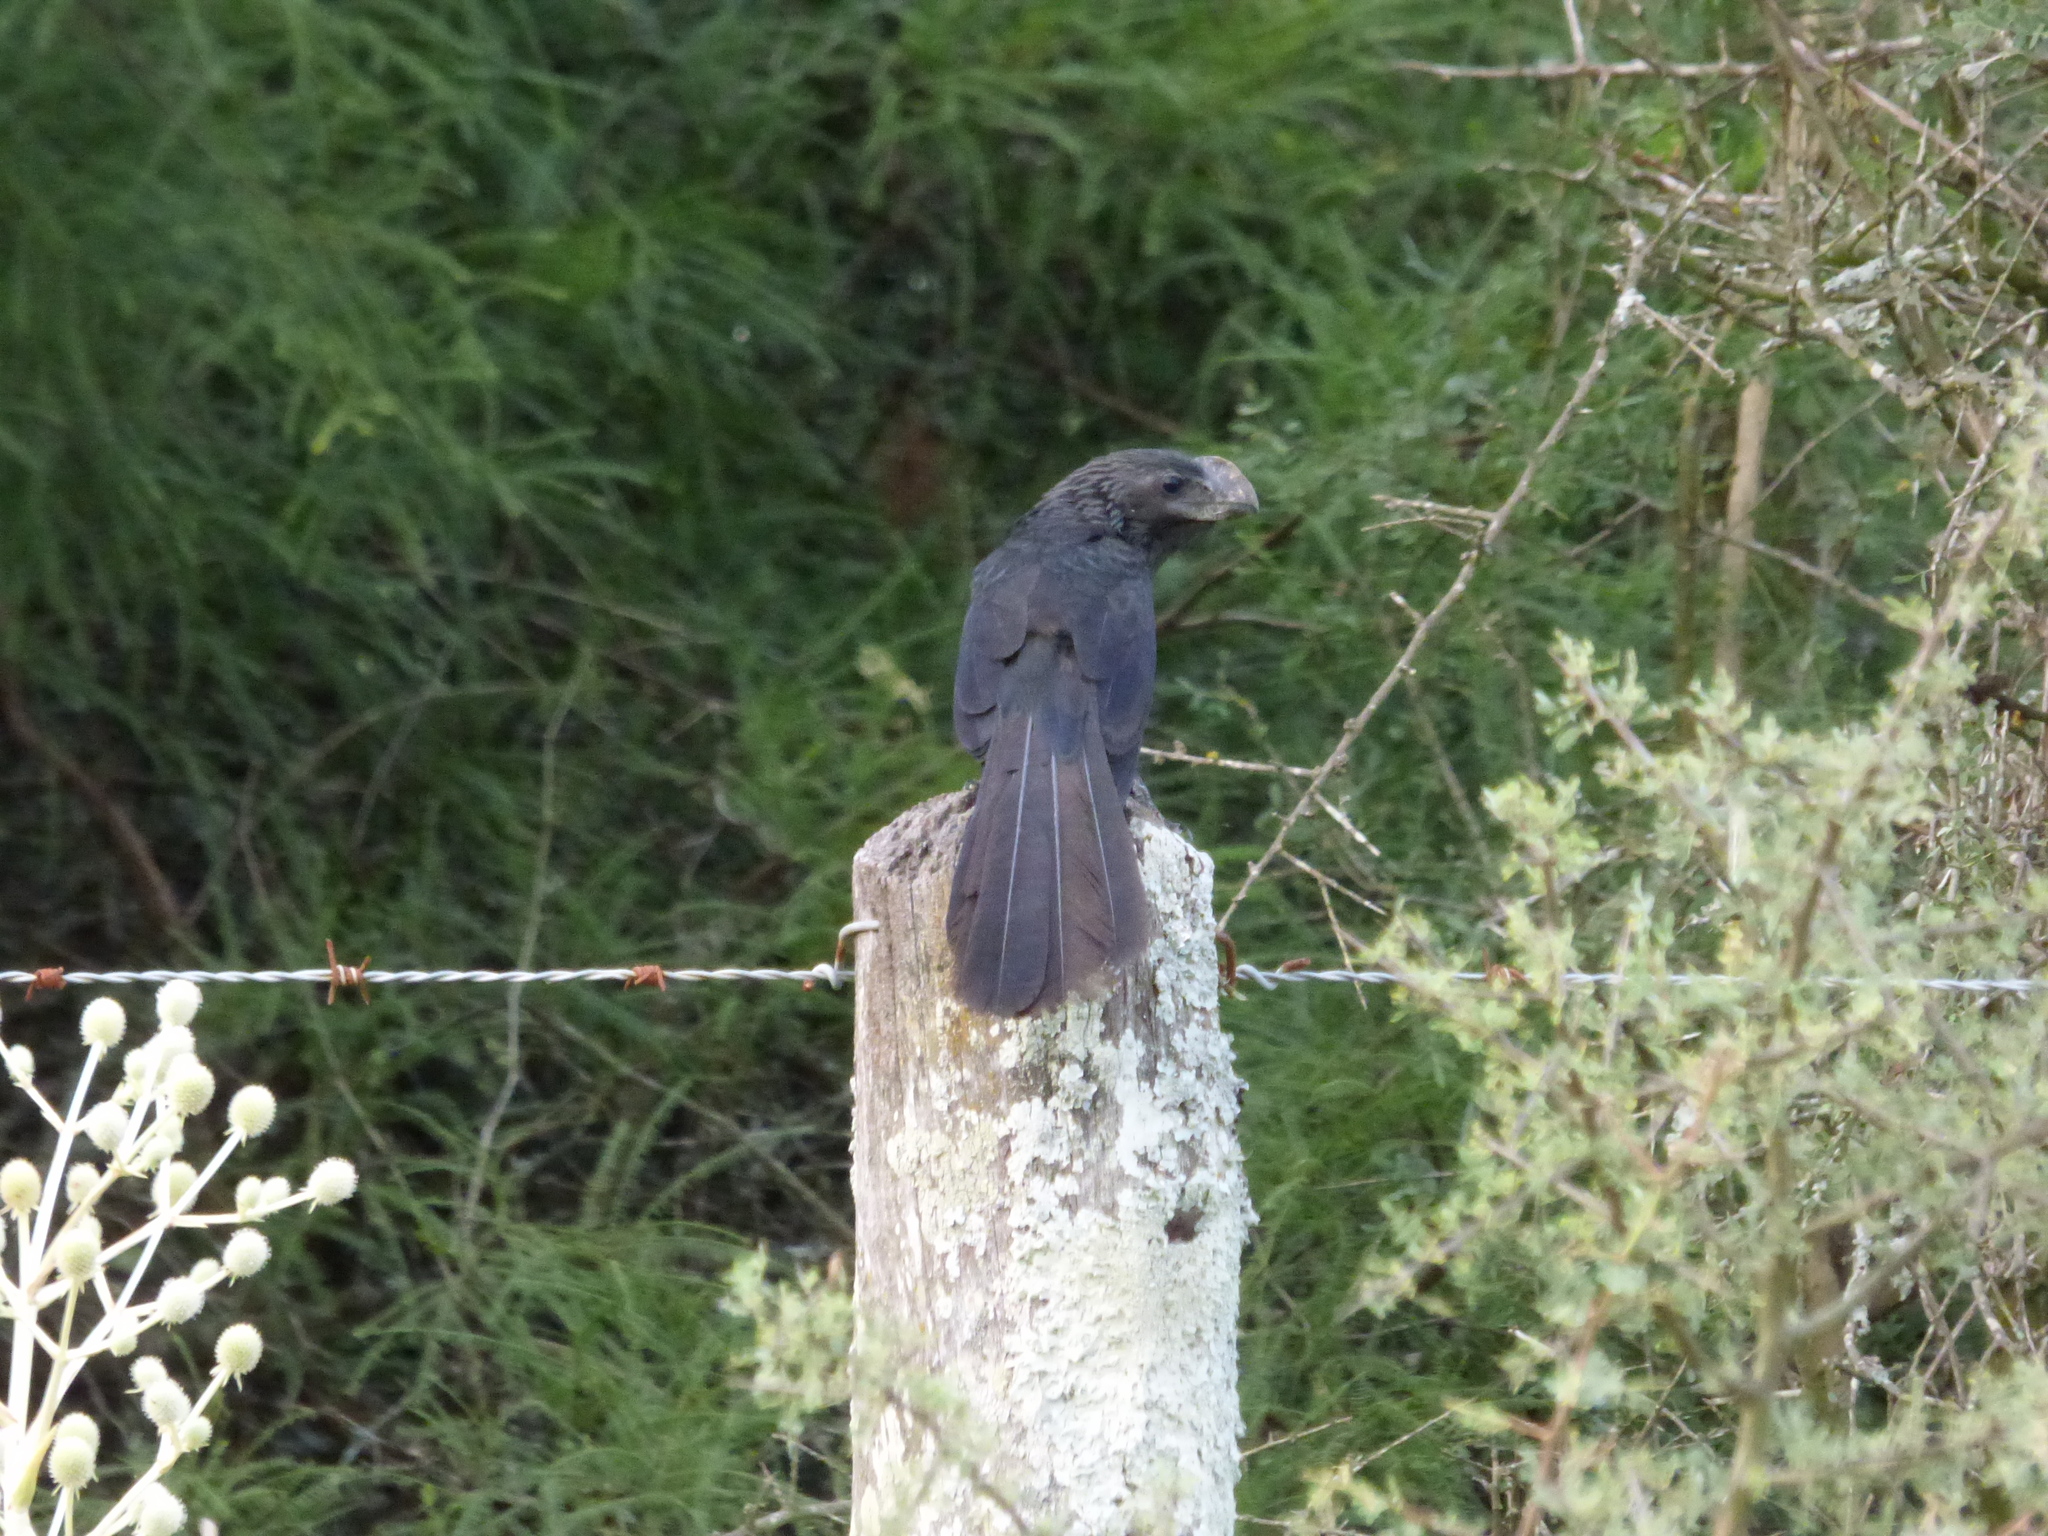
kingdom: Animalia
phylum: Chordata
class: Aves
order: Cuculiformes
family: Cuculidae
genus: Crotophaga
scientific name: Crotophaga ani
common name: Smooth-billed ani
